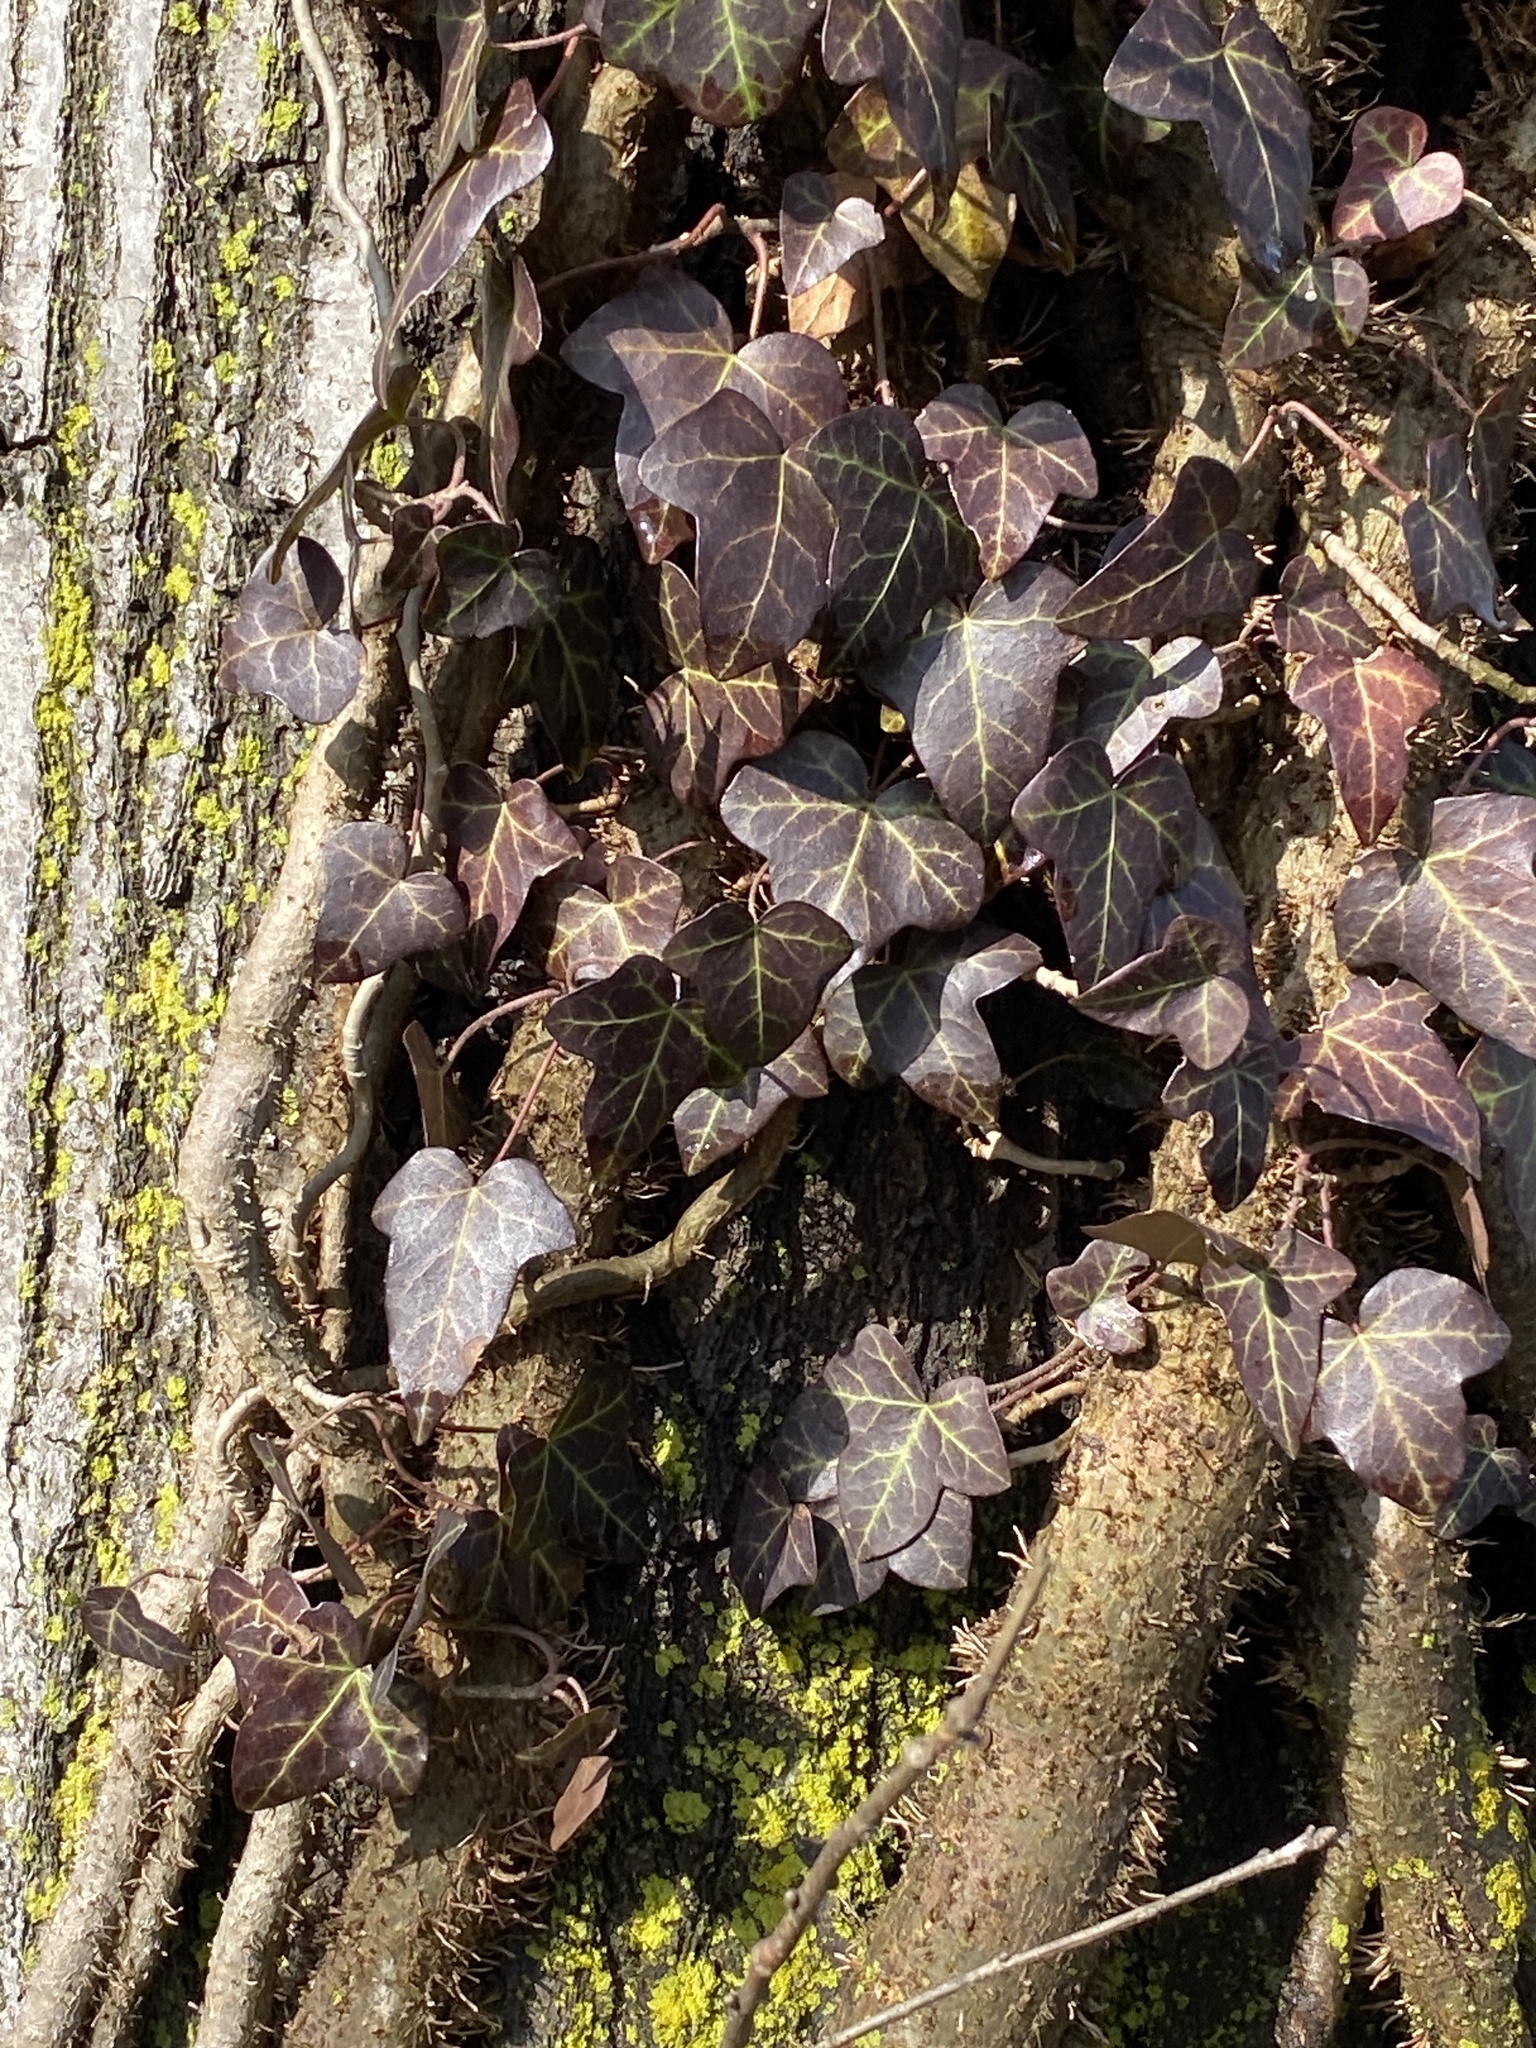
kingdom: Plantae
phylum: Tracheophyta
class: Magnoliopsida
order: Apiales
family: Araliaceae
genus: Hedera
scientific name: Hedera
